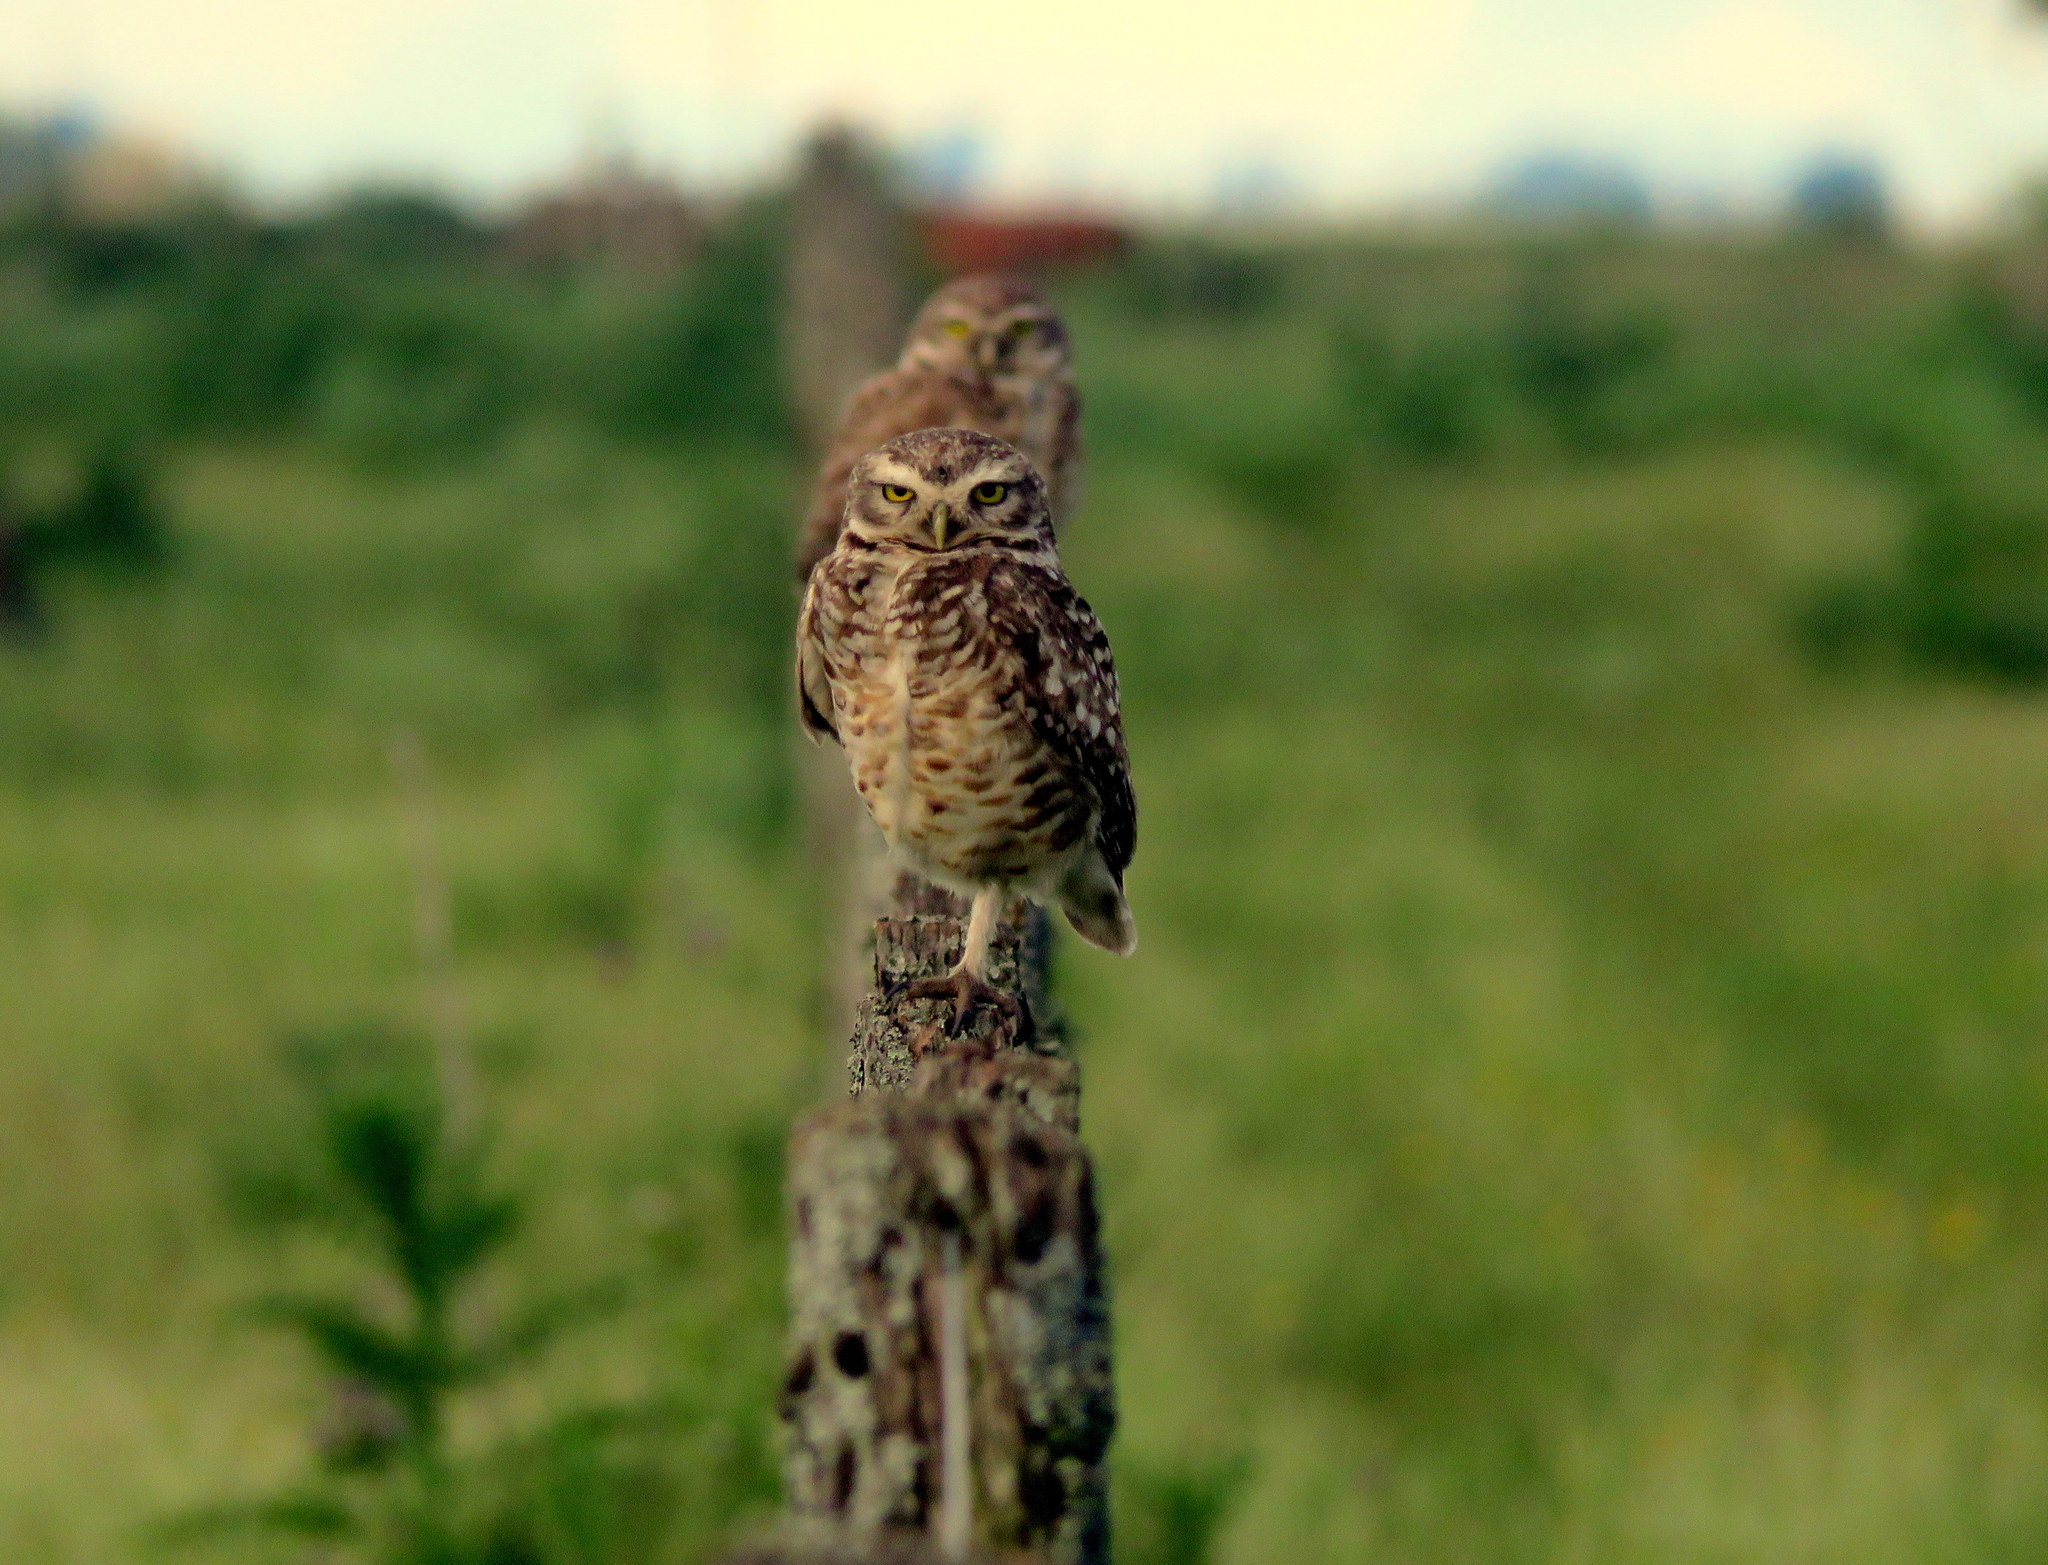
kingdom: Animalia
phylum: Chordata
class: Aves
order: Strigiformes
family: Strigidae
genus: Athene
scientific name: Athene cunicularia
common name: Burrowing owl
